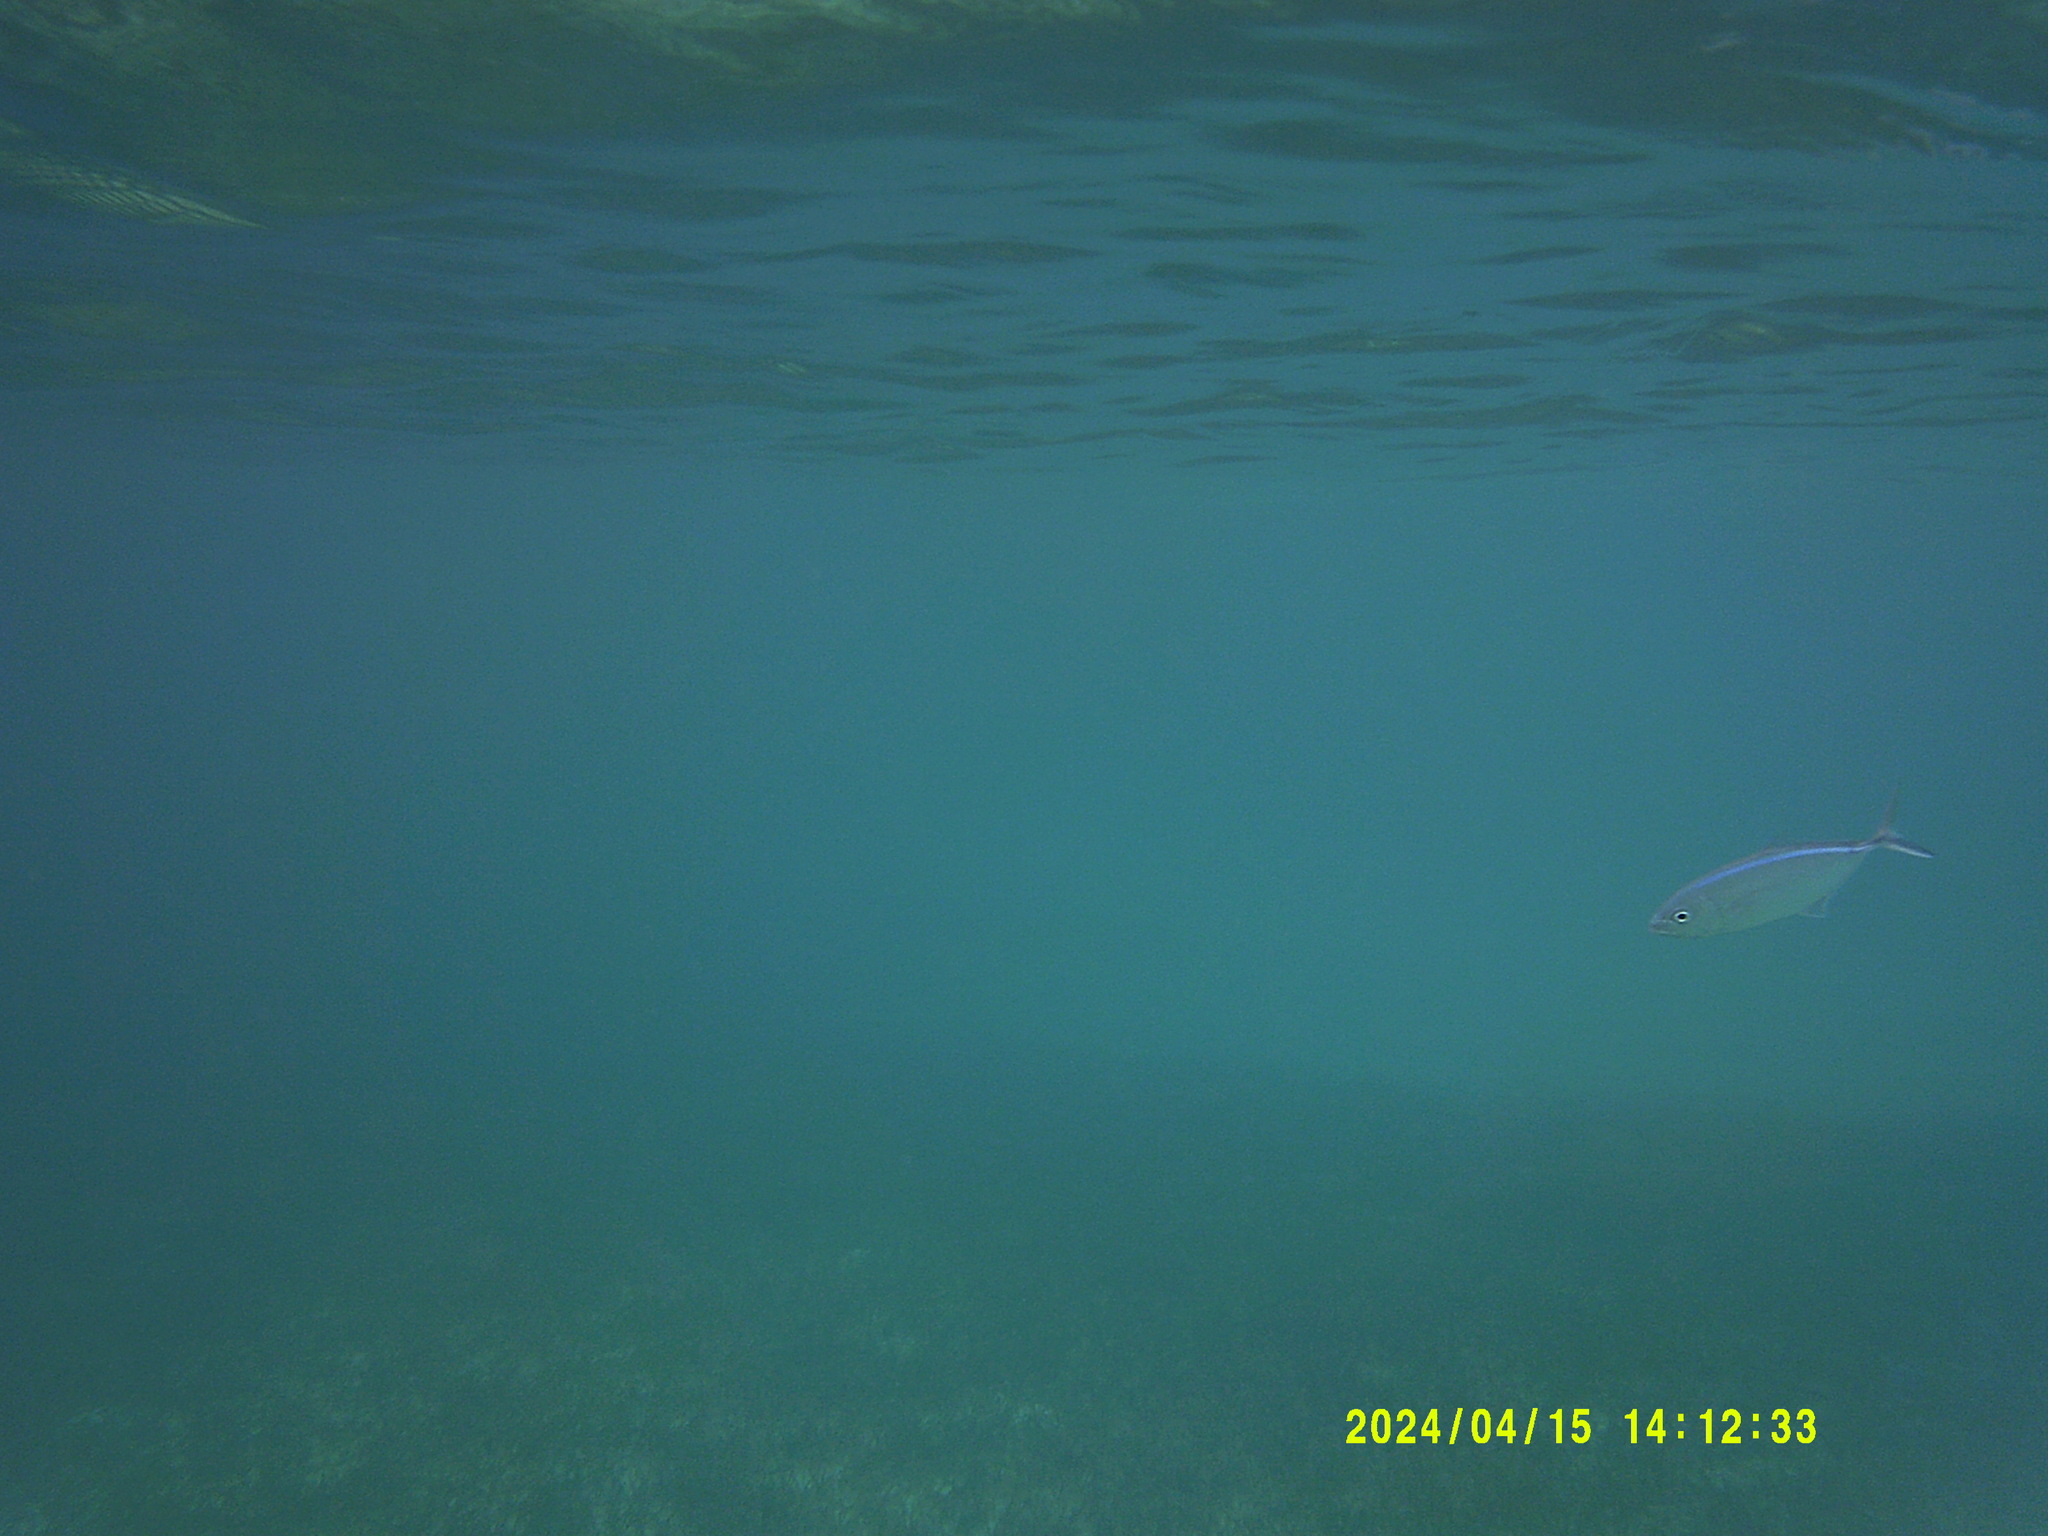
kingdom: Animalia
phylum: Chordata
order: Perciformes
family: Carangidae
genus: Caranx
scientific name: Caranx ruber
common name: Bar jack
